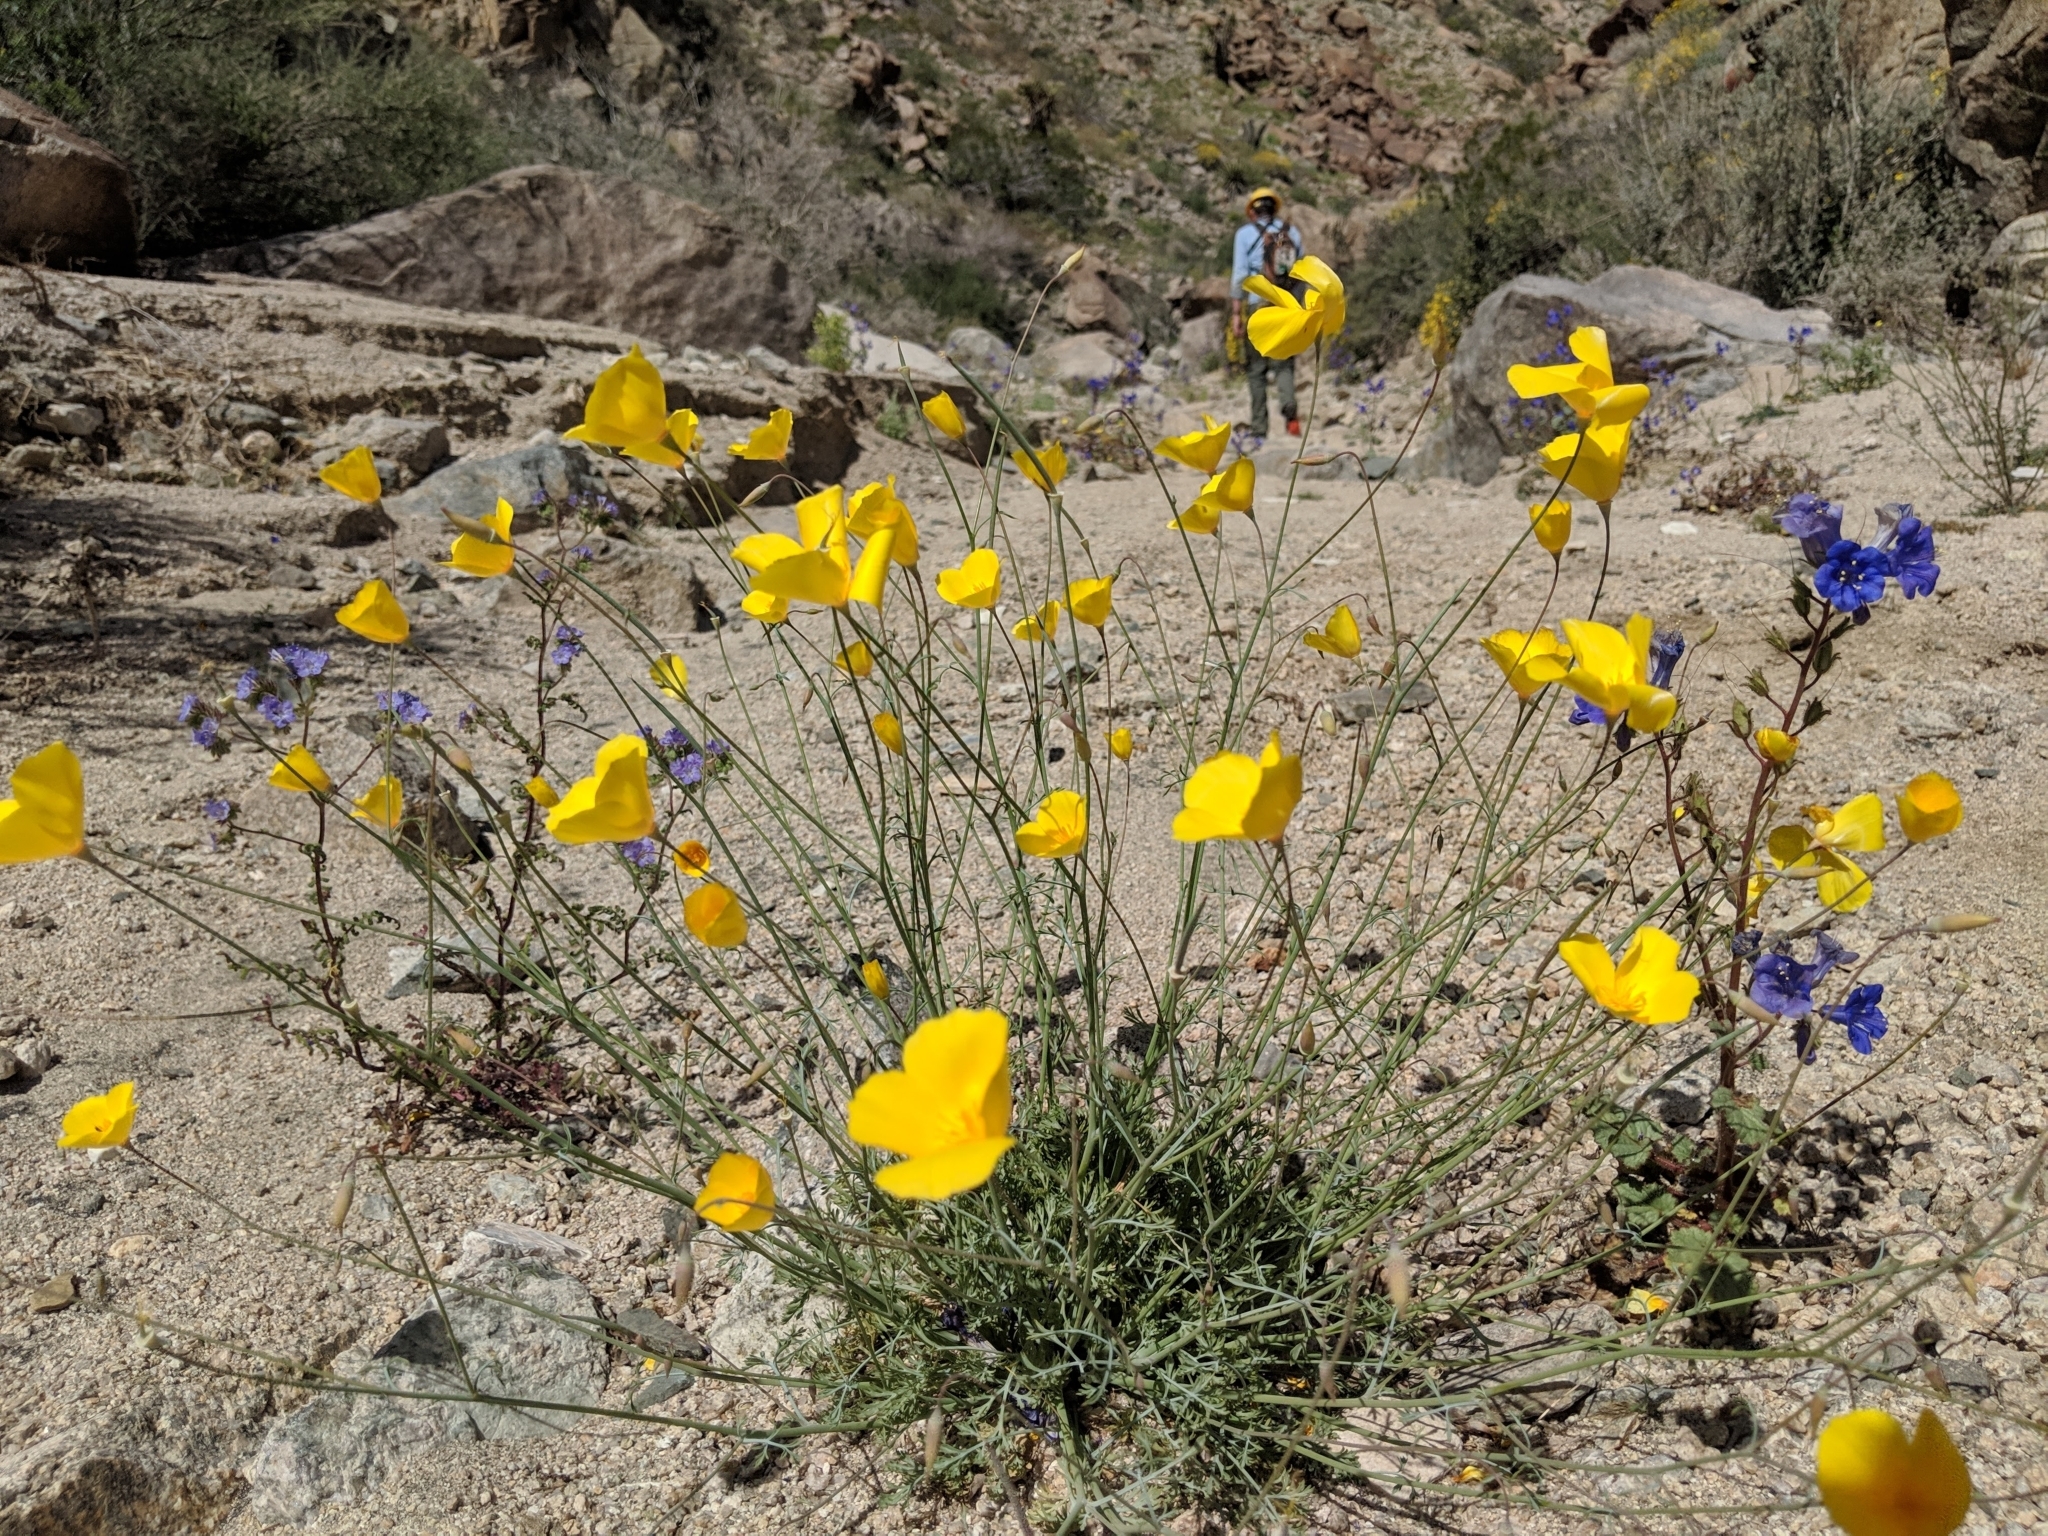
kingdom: Plantae
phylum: Tracheophyta
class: Magnoliopsida
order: Ranunculales
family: Papaveraceae
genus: Eschscholzia
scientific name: Eschscholzia papastillii
